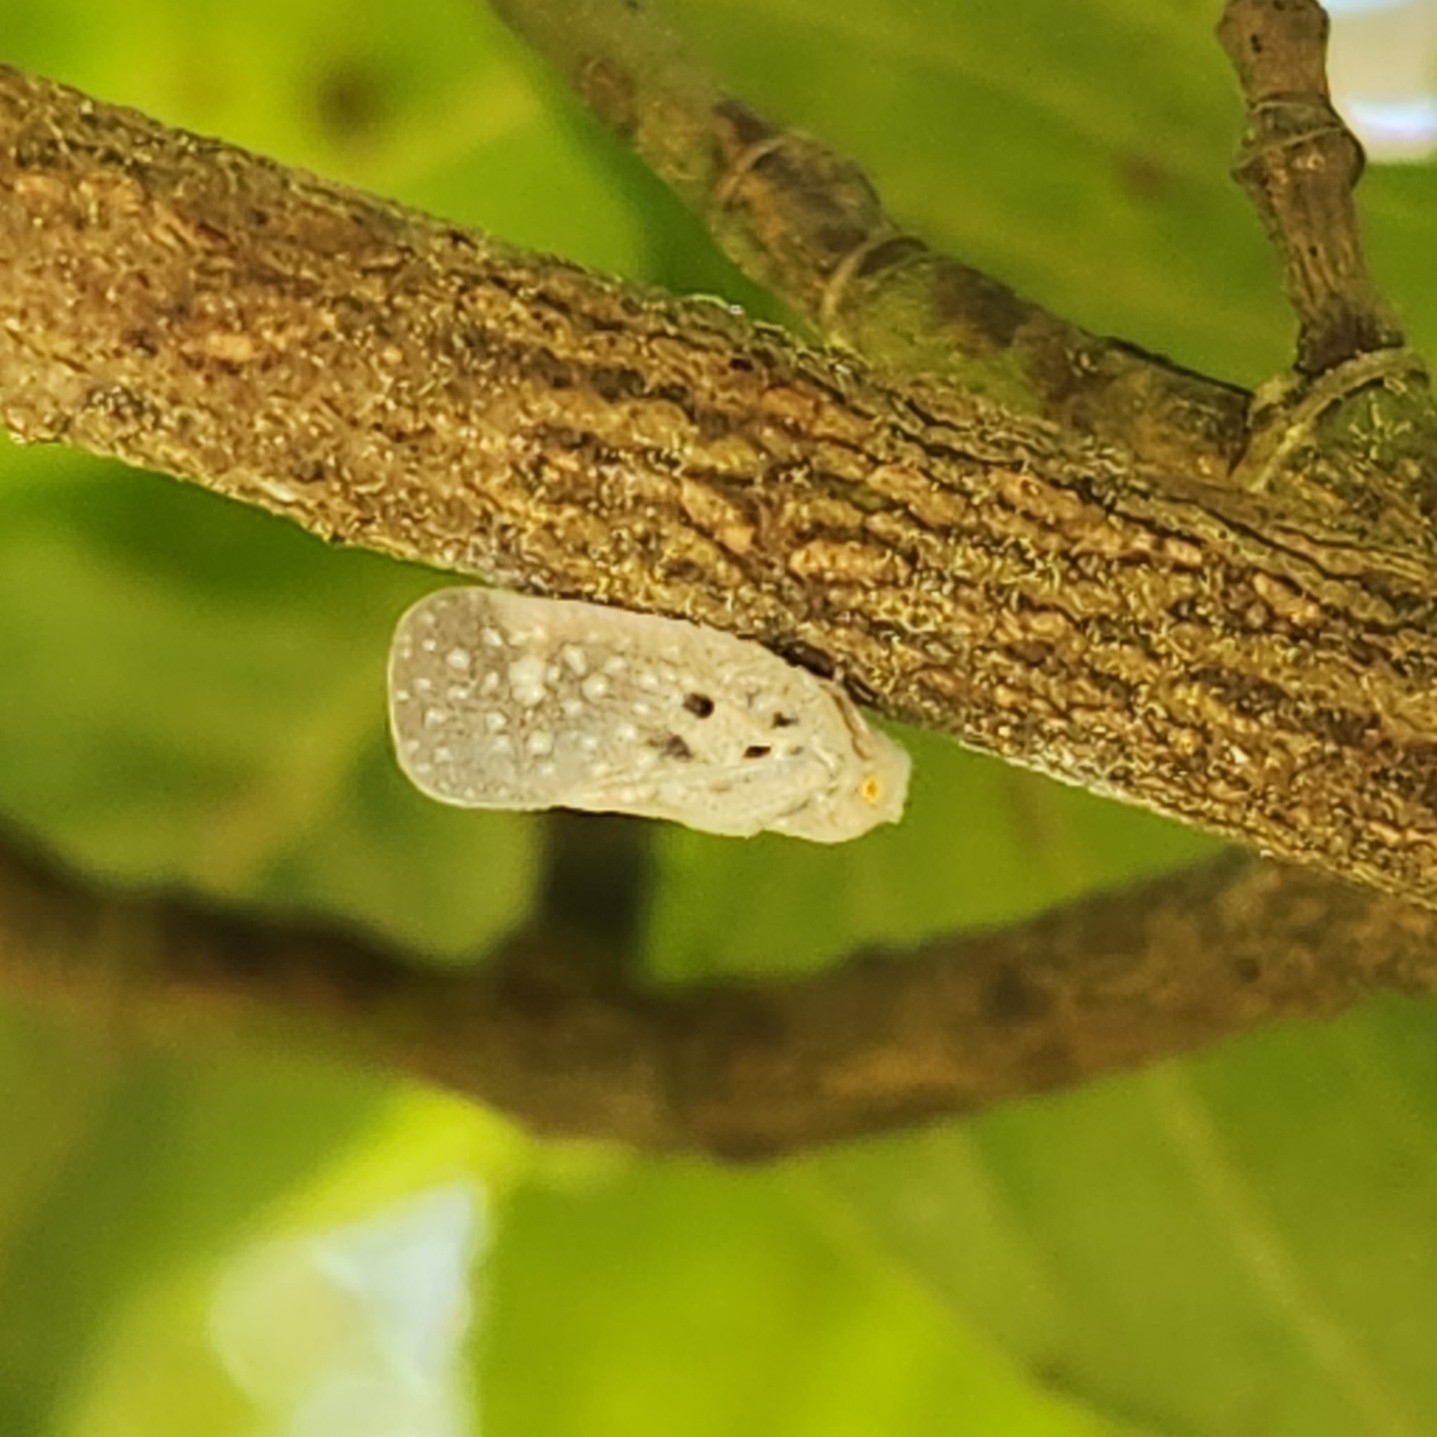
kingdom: Animalia
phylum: Arthropoda
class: Insecta
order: Hemiptera
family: Flatidae
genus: Metcalfa
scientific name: Metcalfa pruinosa
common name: Citrus flatid planthopper
